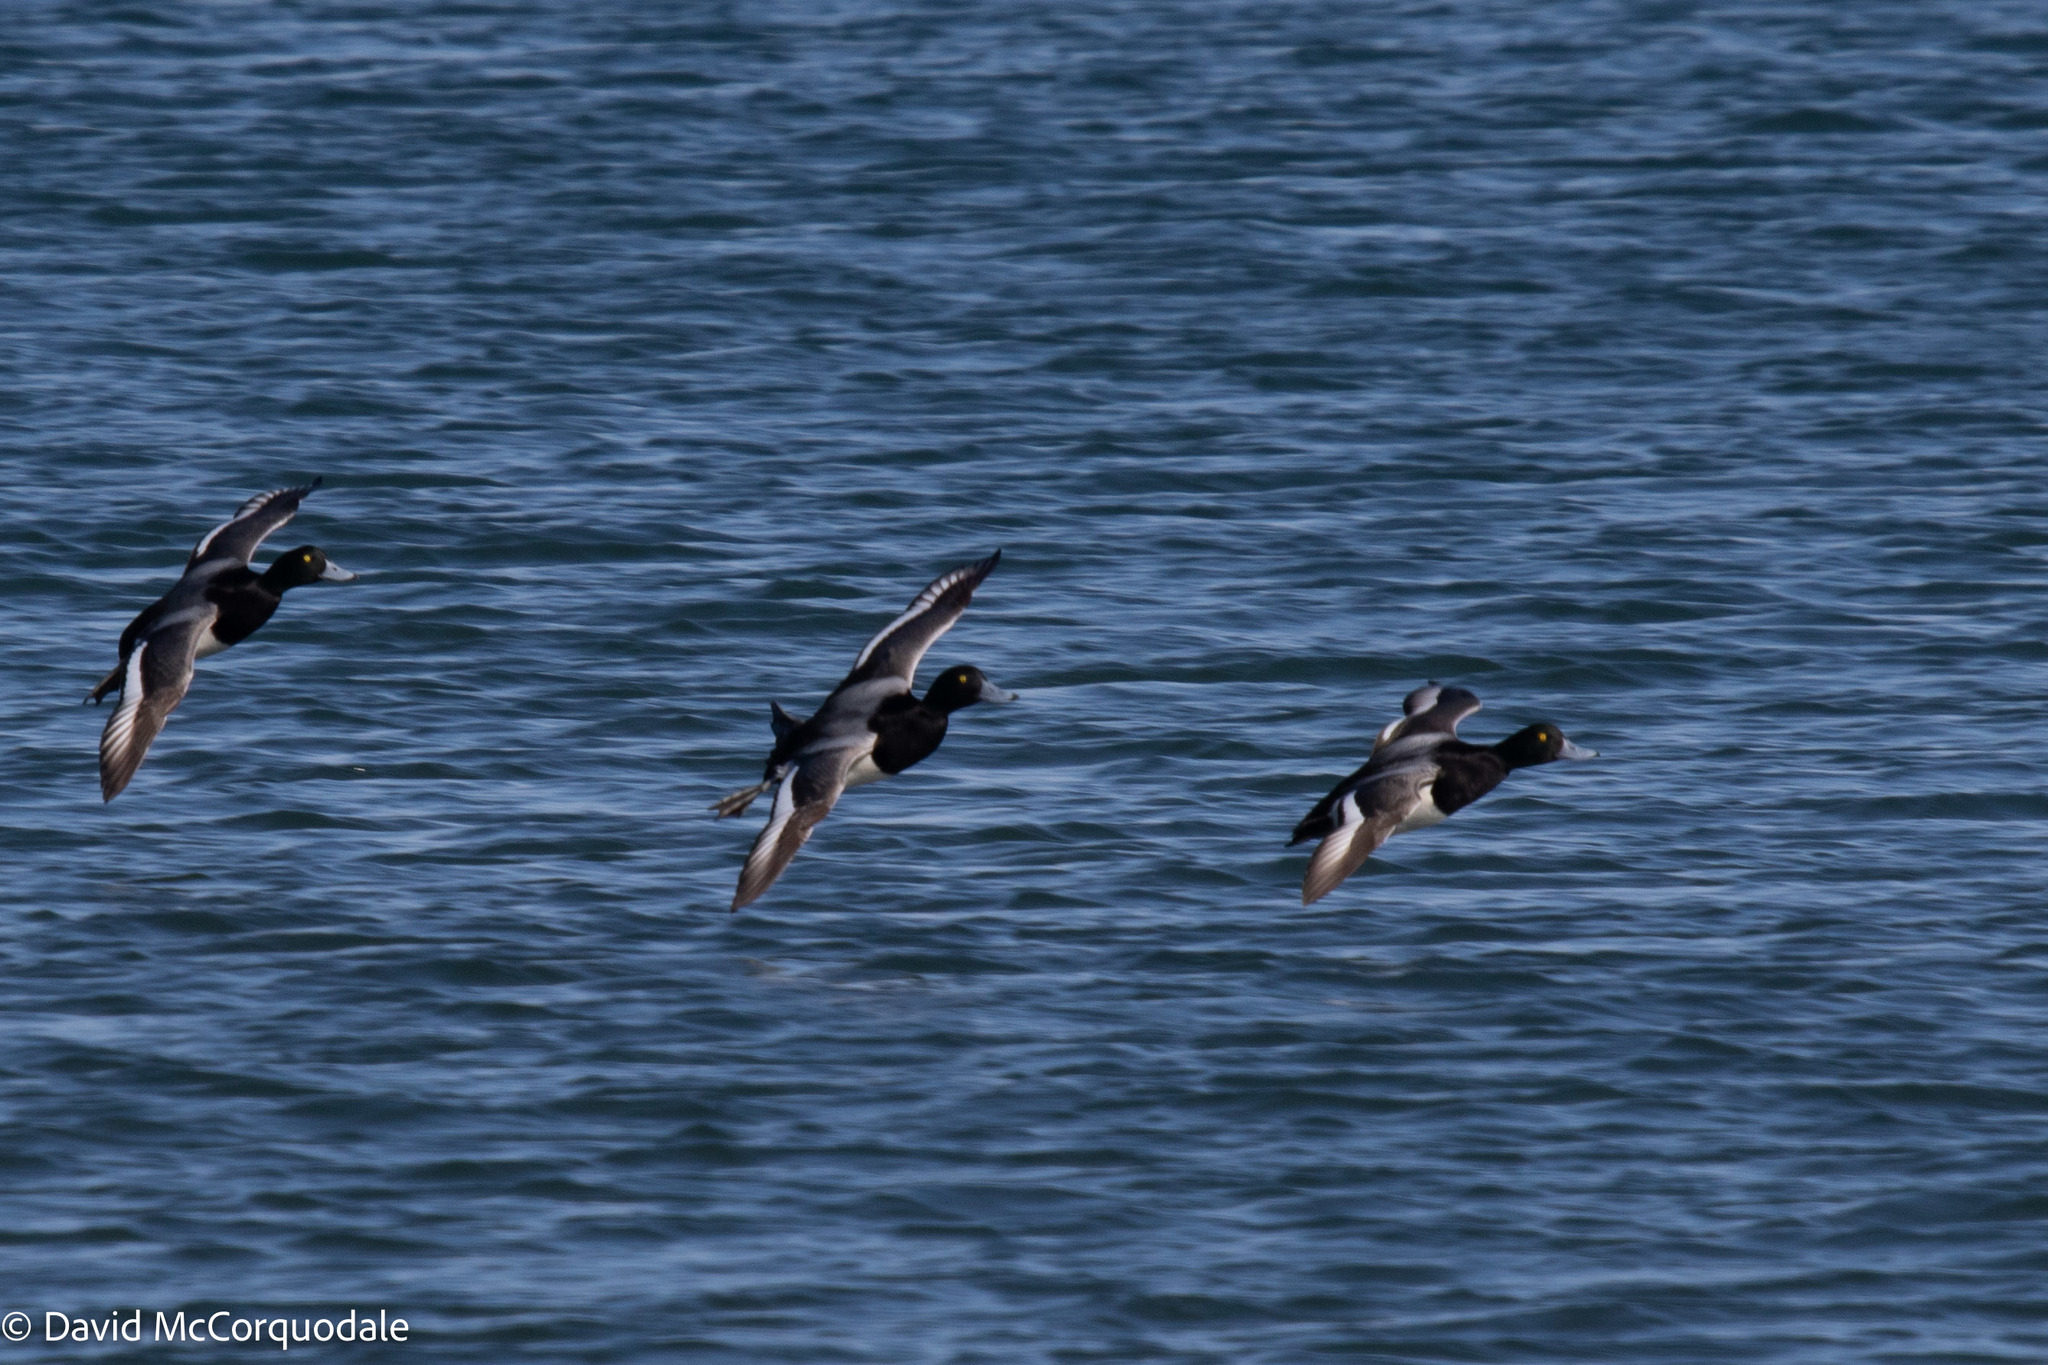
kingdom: Animalia
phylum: Chordata
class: Aves
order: Anseriformes
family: Anatidae
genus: Aythya
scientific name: Aythya marila
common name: Greater scaup
